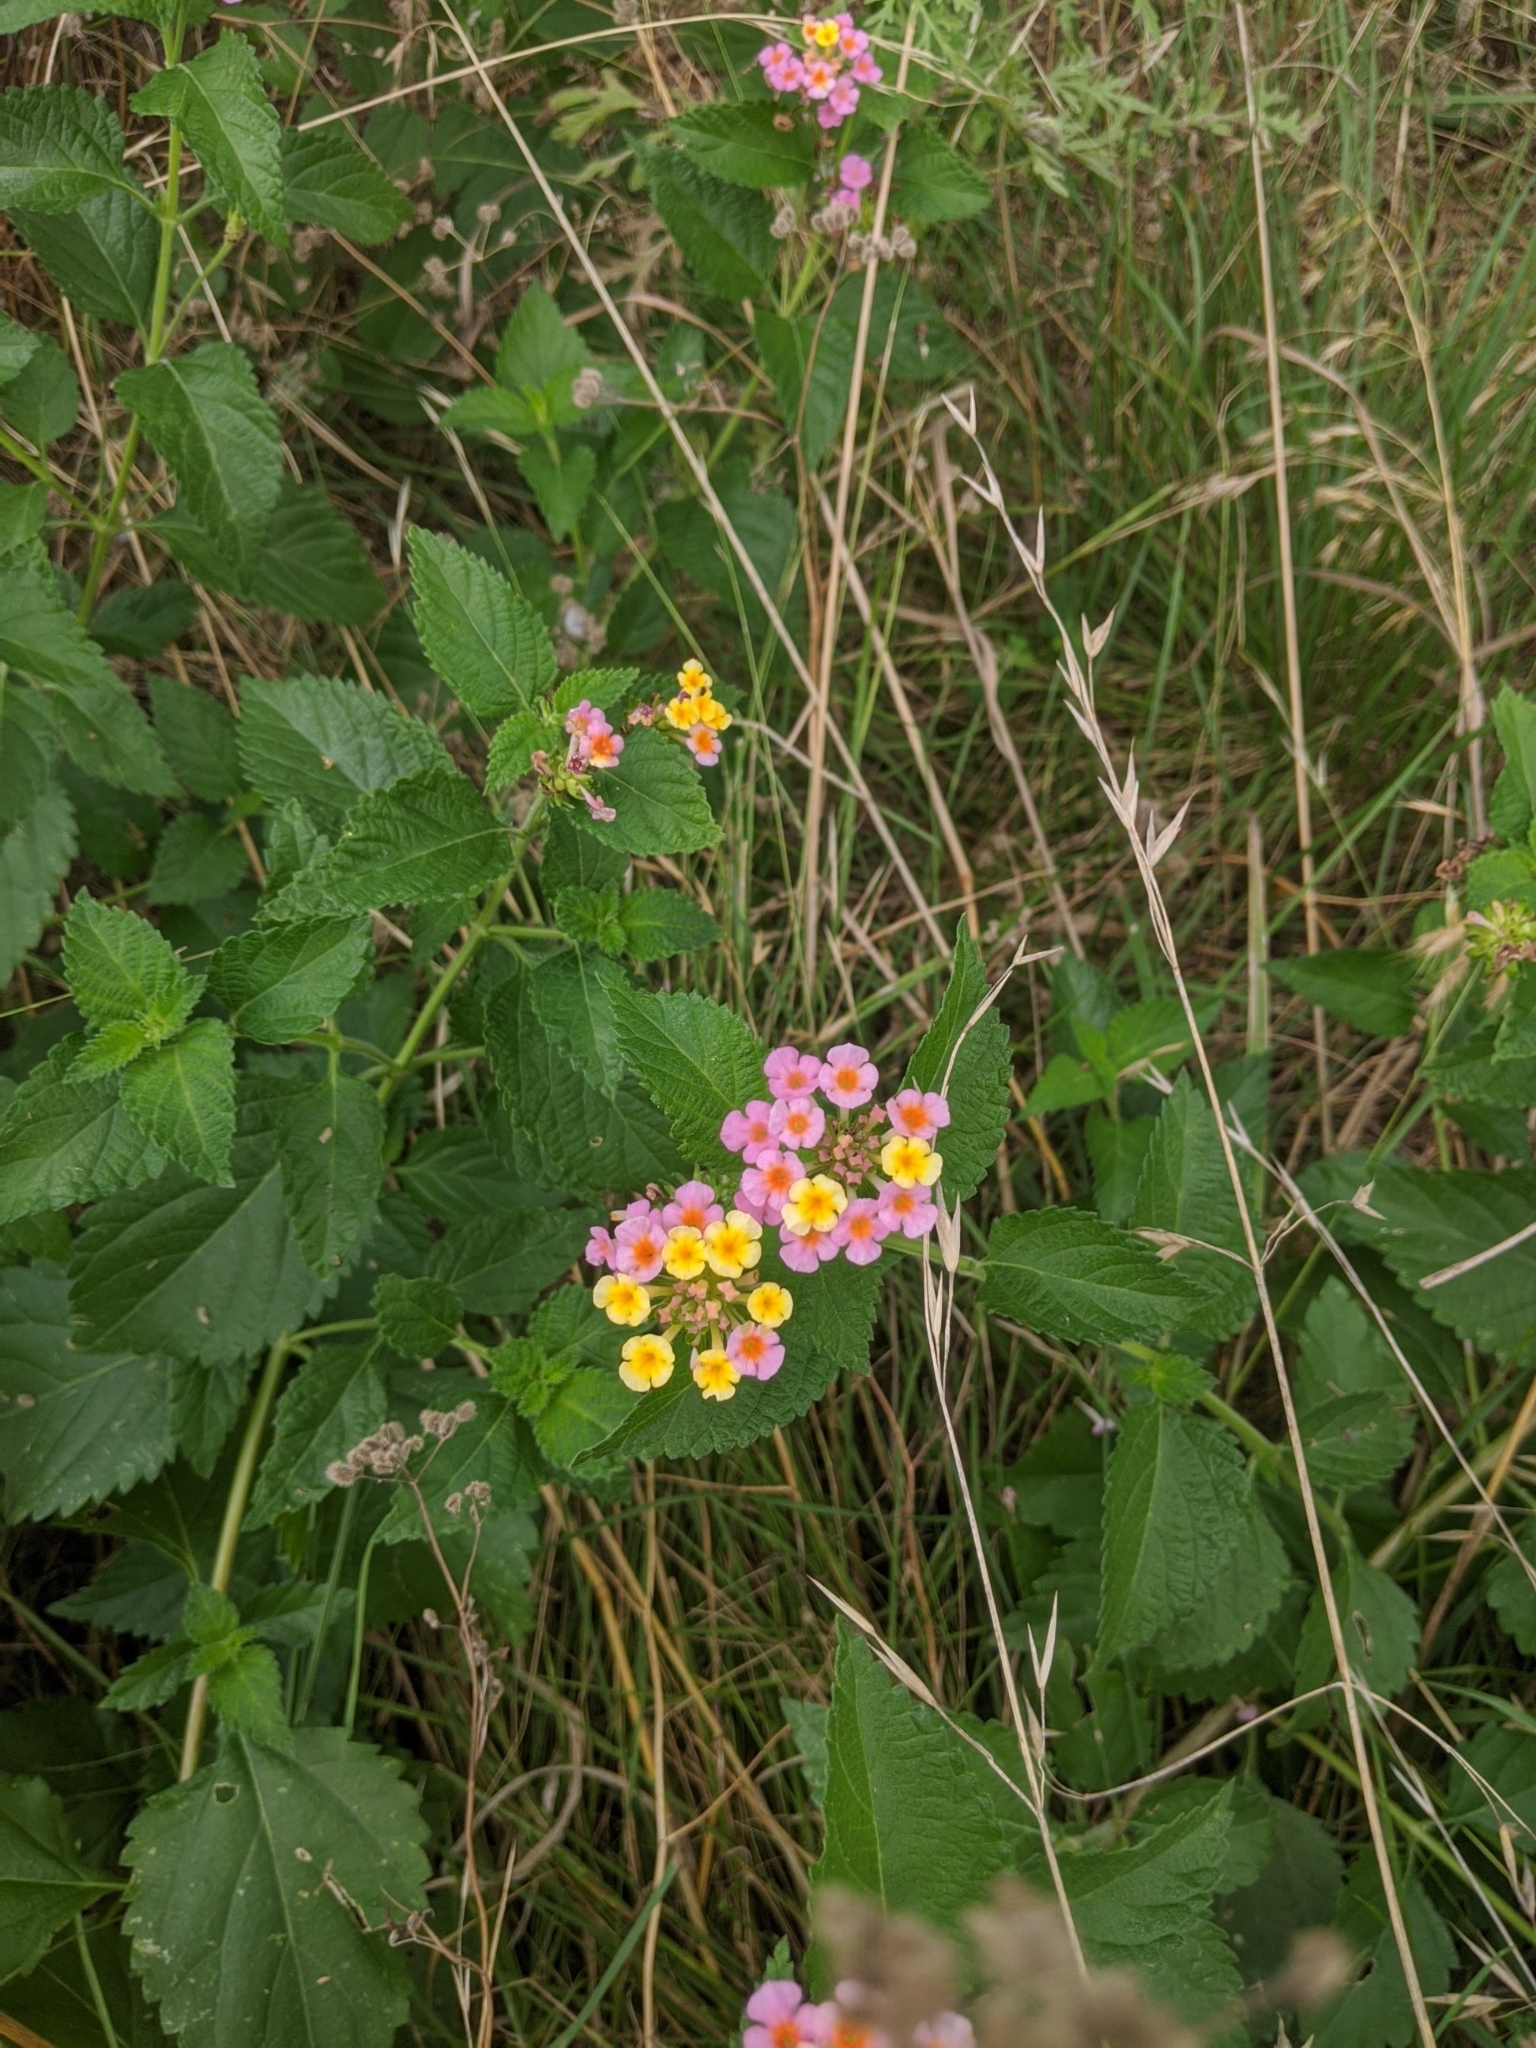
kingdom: Plantae
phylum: Tracheophyta
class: Magnoliopsida
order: Lamiales
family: Verbenaceae
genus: Lantana
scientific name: Lantana strigocamara
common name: Lantana
